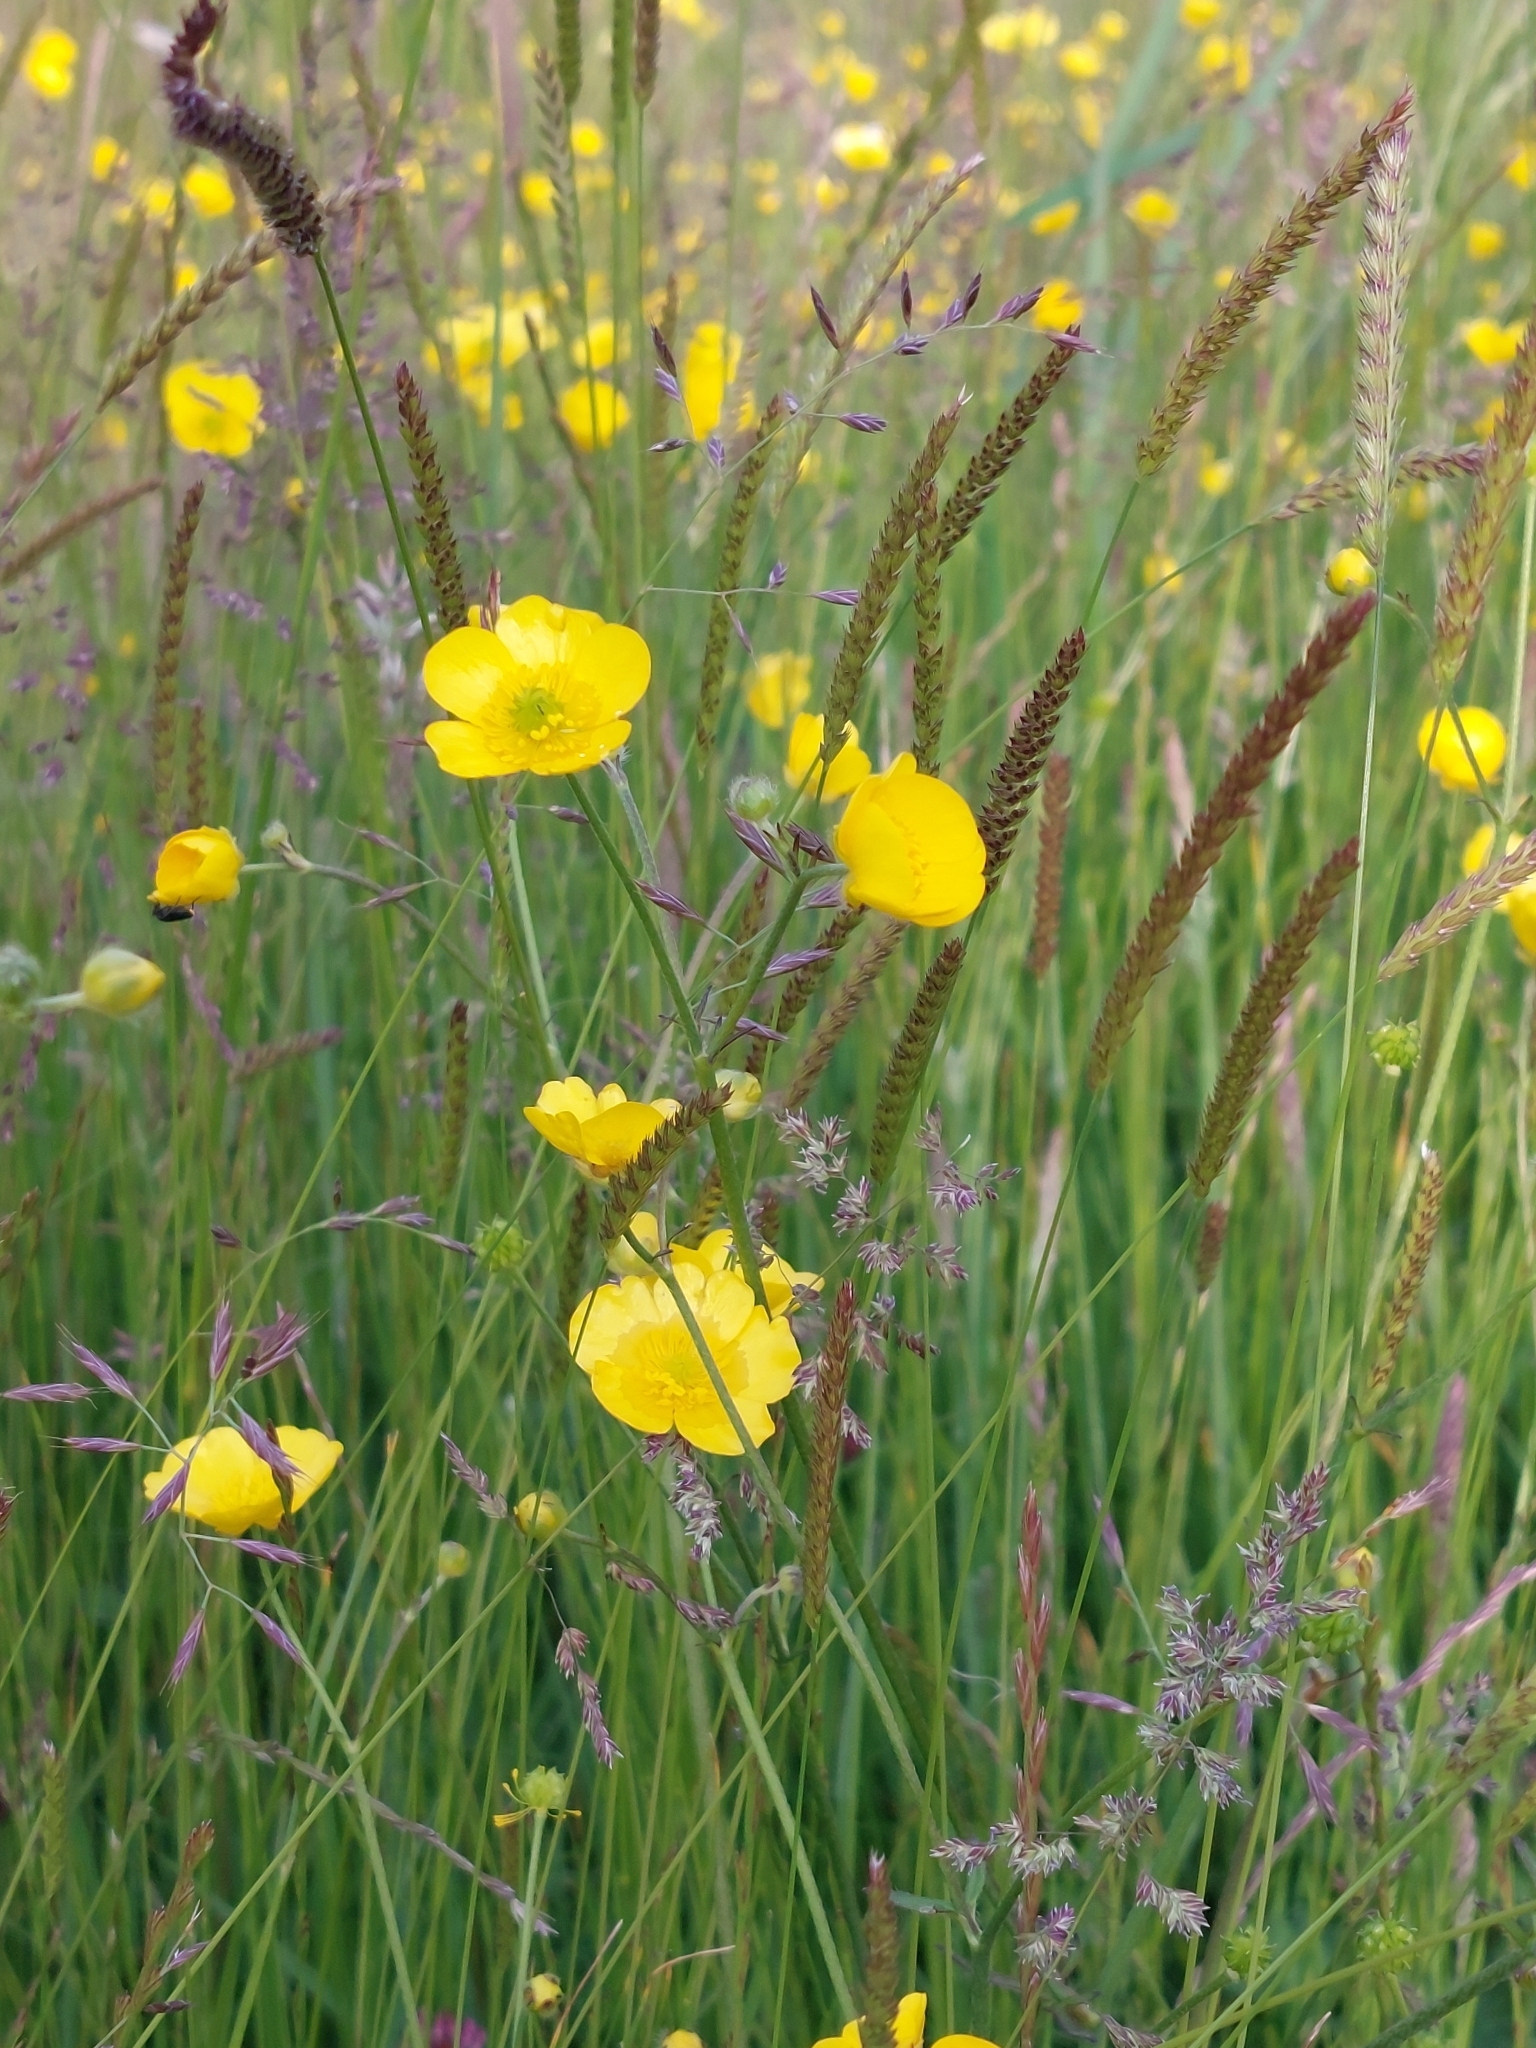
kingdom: Plantae
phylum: Tracheophyta
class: Liliopsida
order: Poales
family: Poaceae
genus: Cynosurus
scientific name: Cynosurus cristatus
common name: Crested dog's-tail
